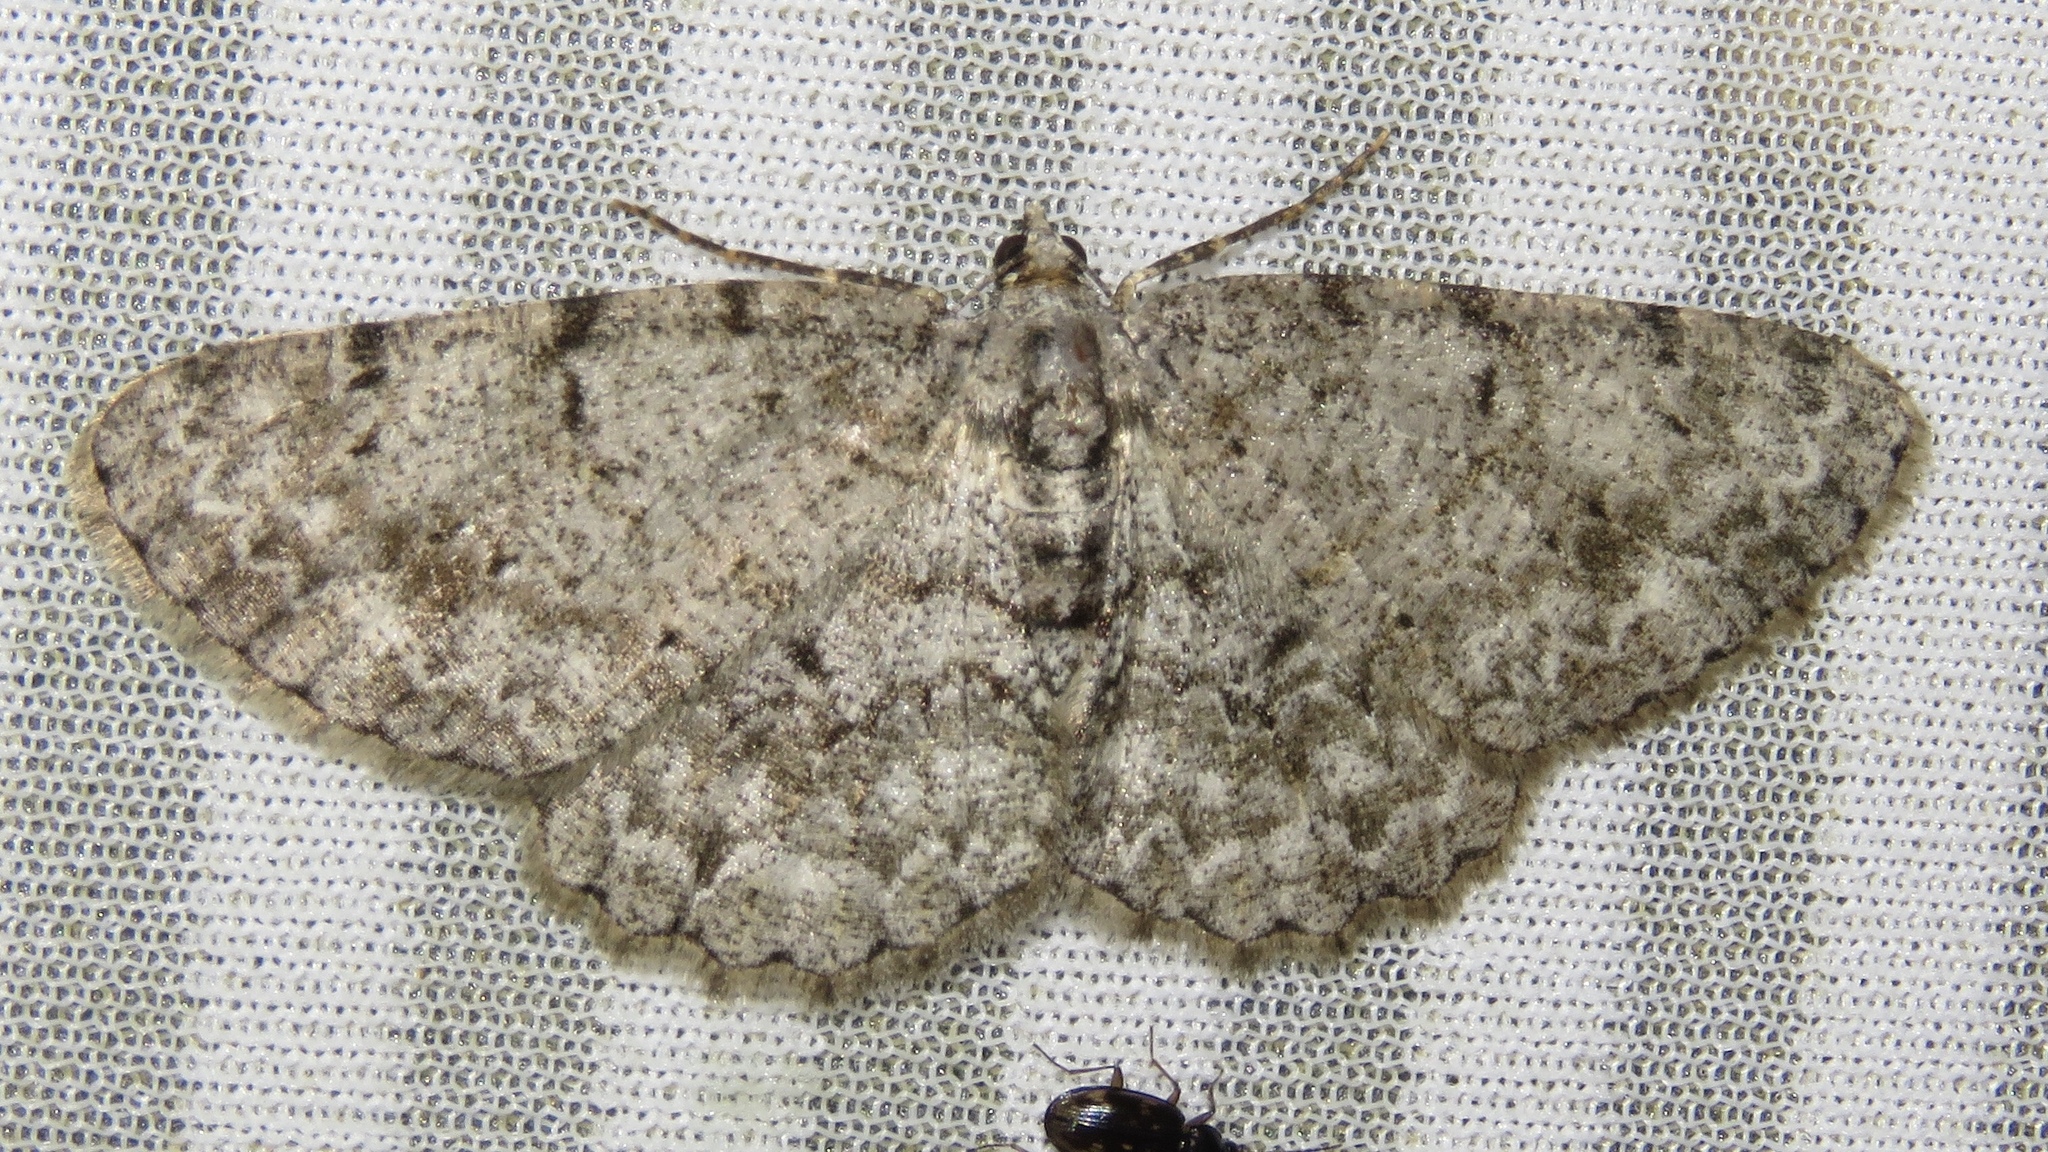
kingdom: Animalia
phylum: Arthropoda
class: Insecta
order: Lepidoptera
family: Geometridae
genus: Protoboarmia
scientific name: Protoboarmia porcelaria
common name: Porcelain gray
